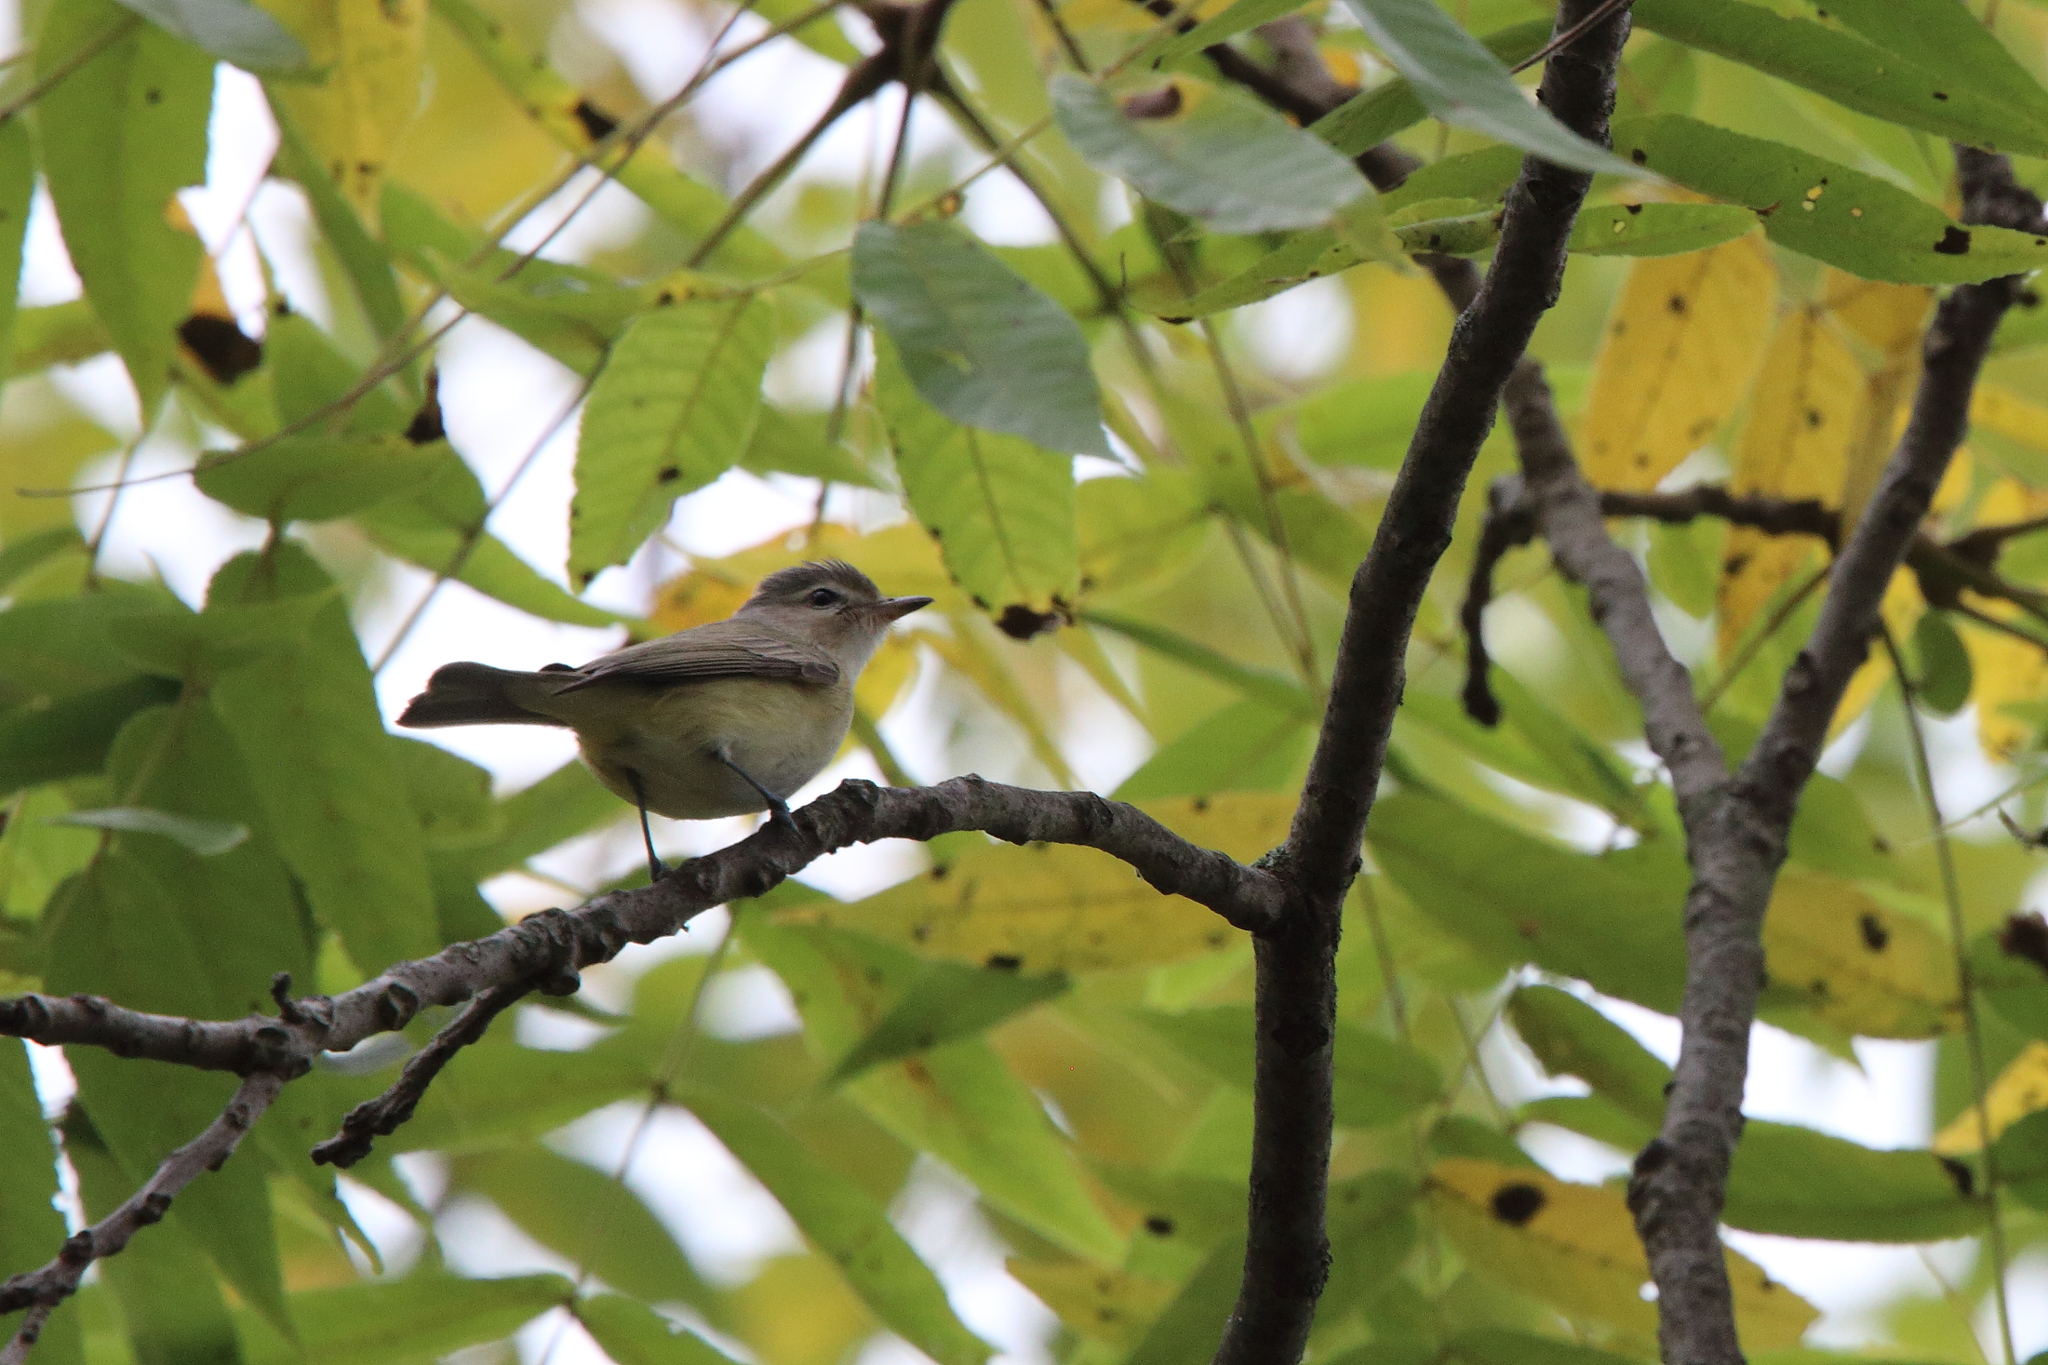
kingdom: Animalia
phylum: Chordata
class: Aves
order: Passeriformes
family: Vireonidae
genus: Vireo
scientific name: Vireo gilvus
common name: Warbling vireo
